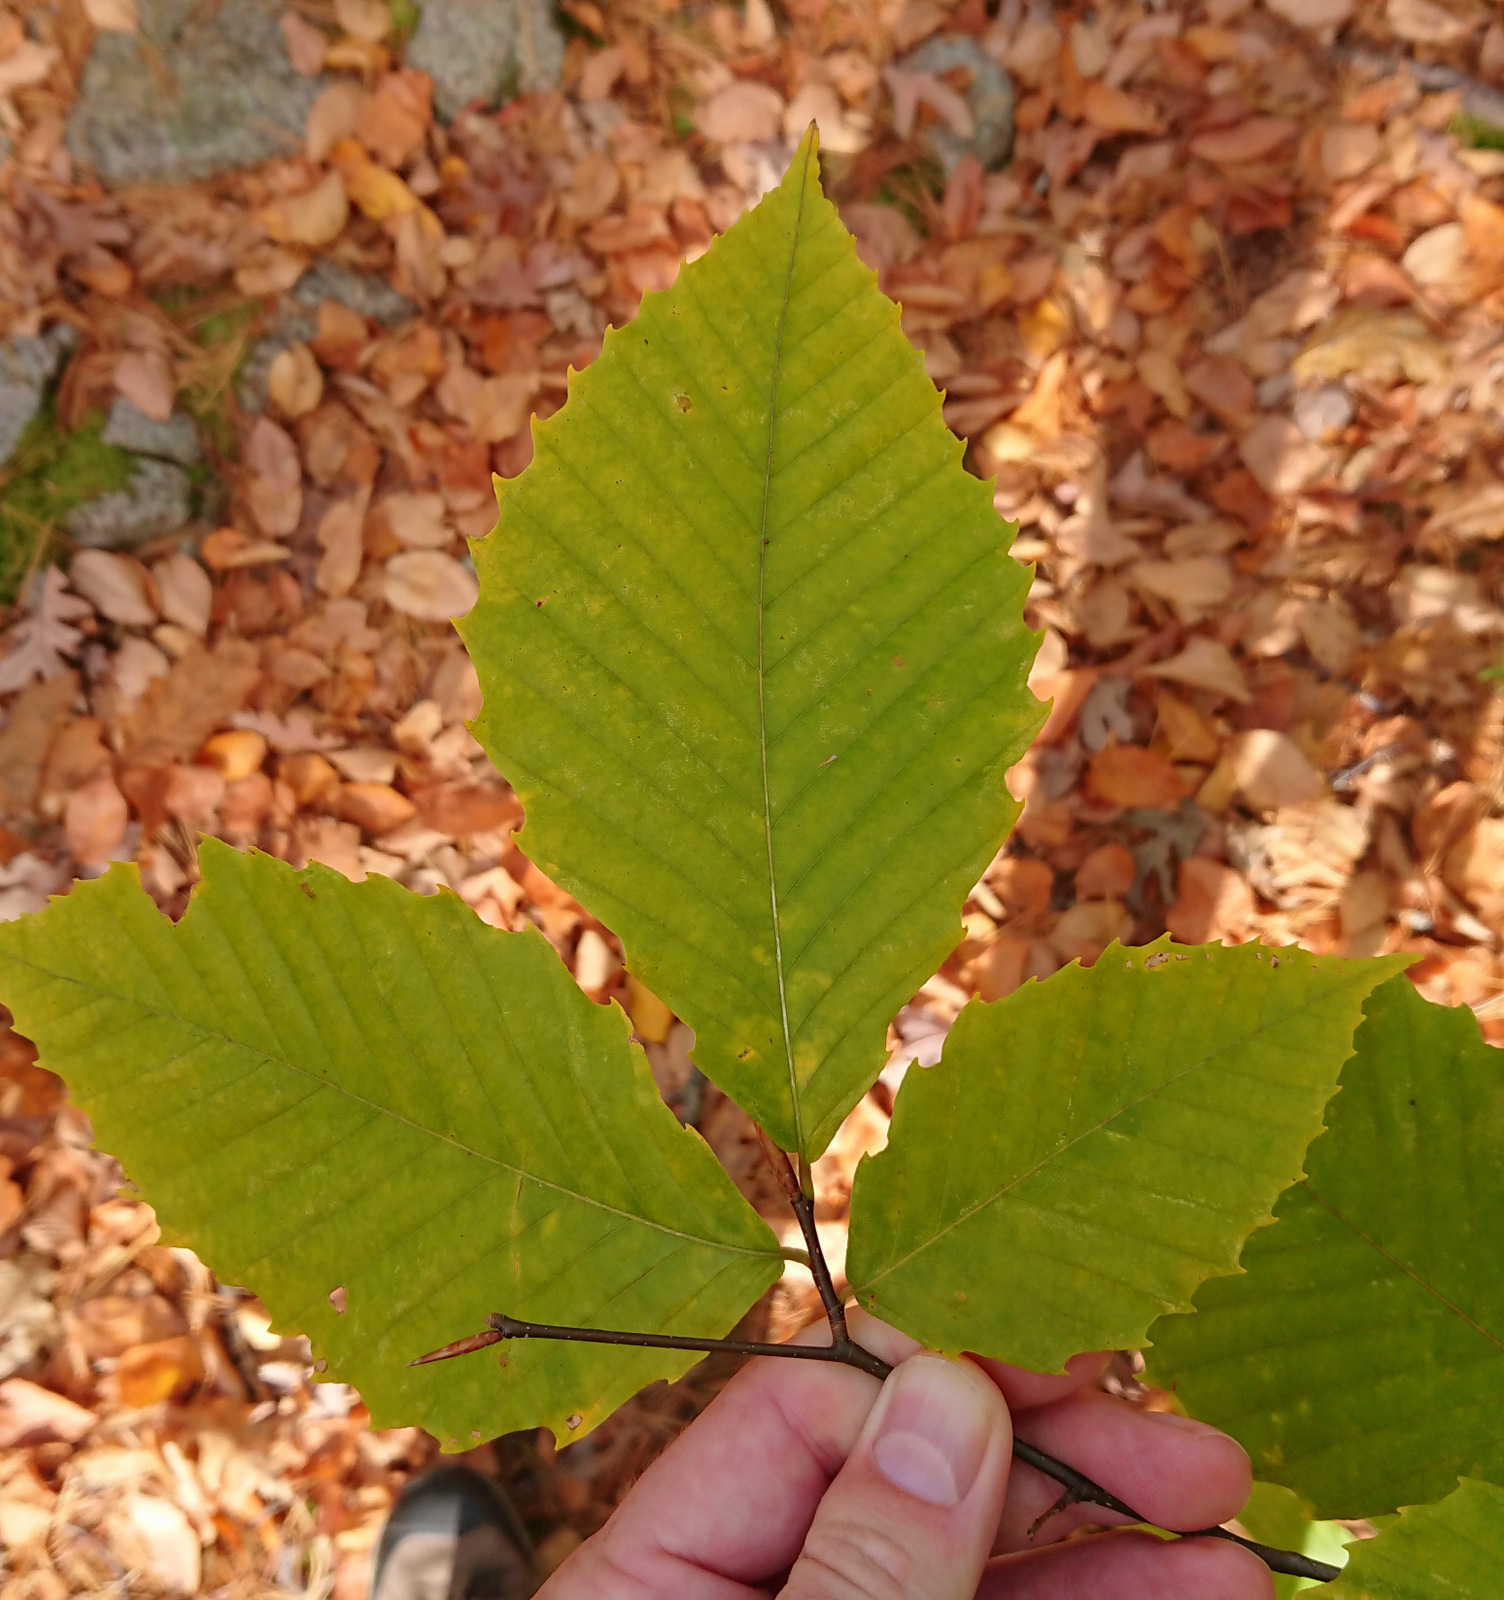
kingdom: Plantae
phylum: Tracheophyta
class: Magnoliopsida
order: Fagales
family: Fagaceae
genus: Fagus
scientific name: Fagus grandifolia
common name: American beech
